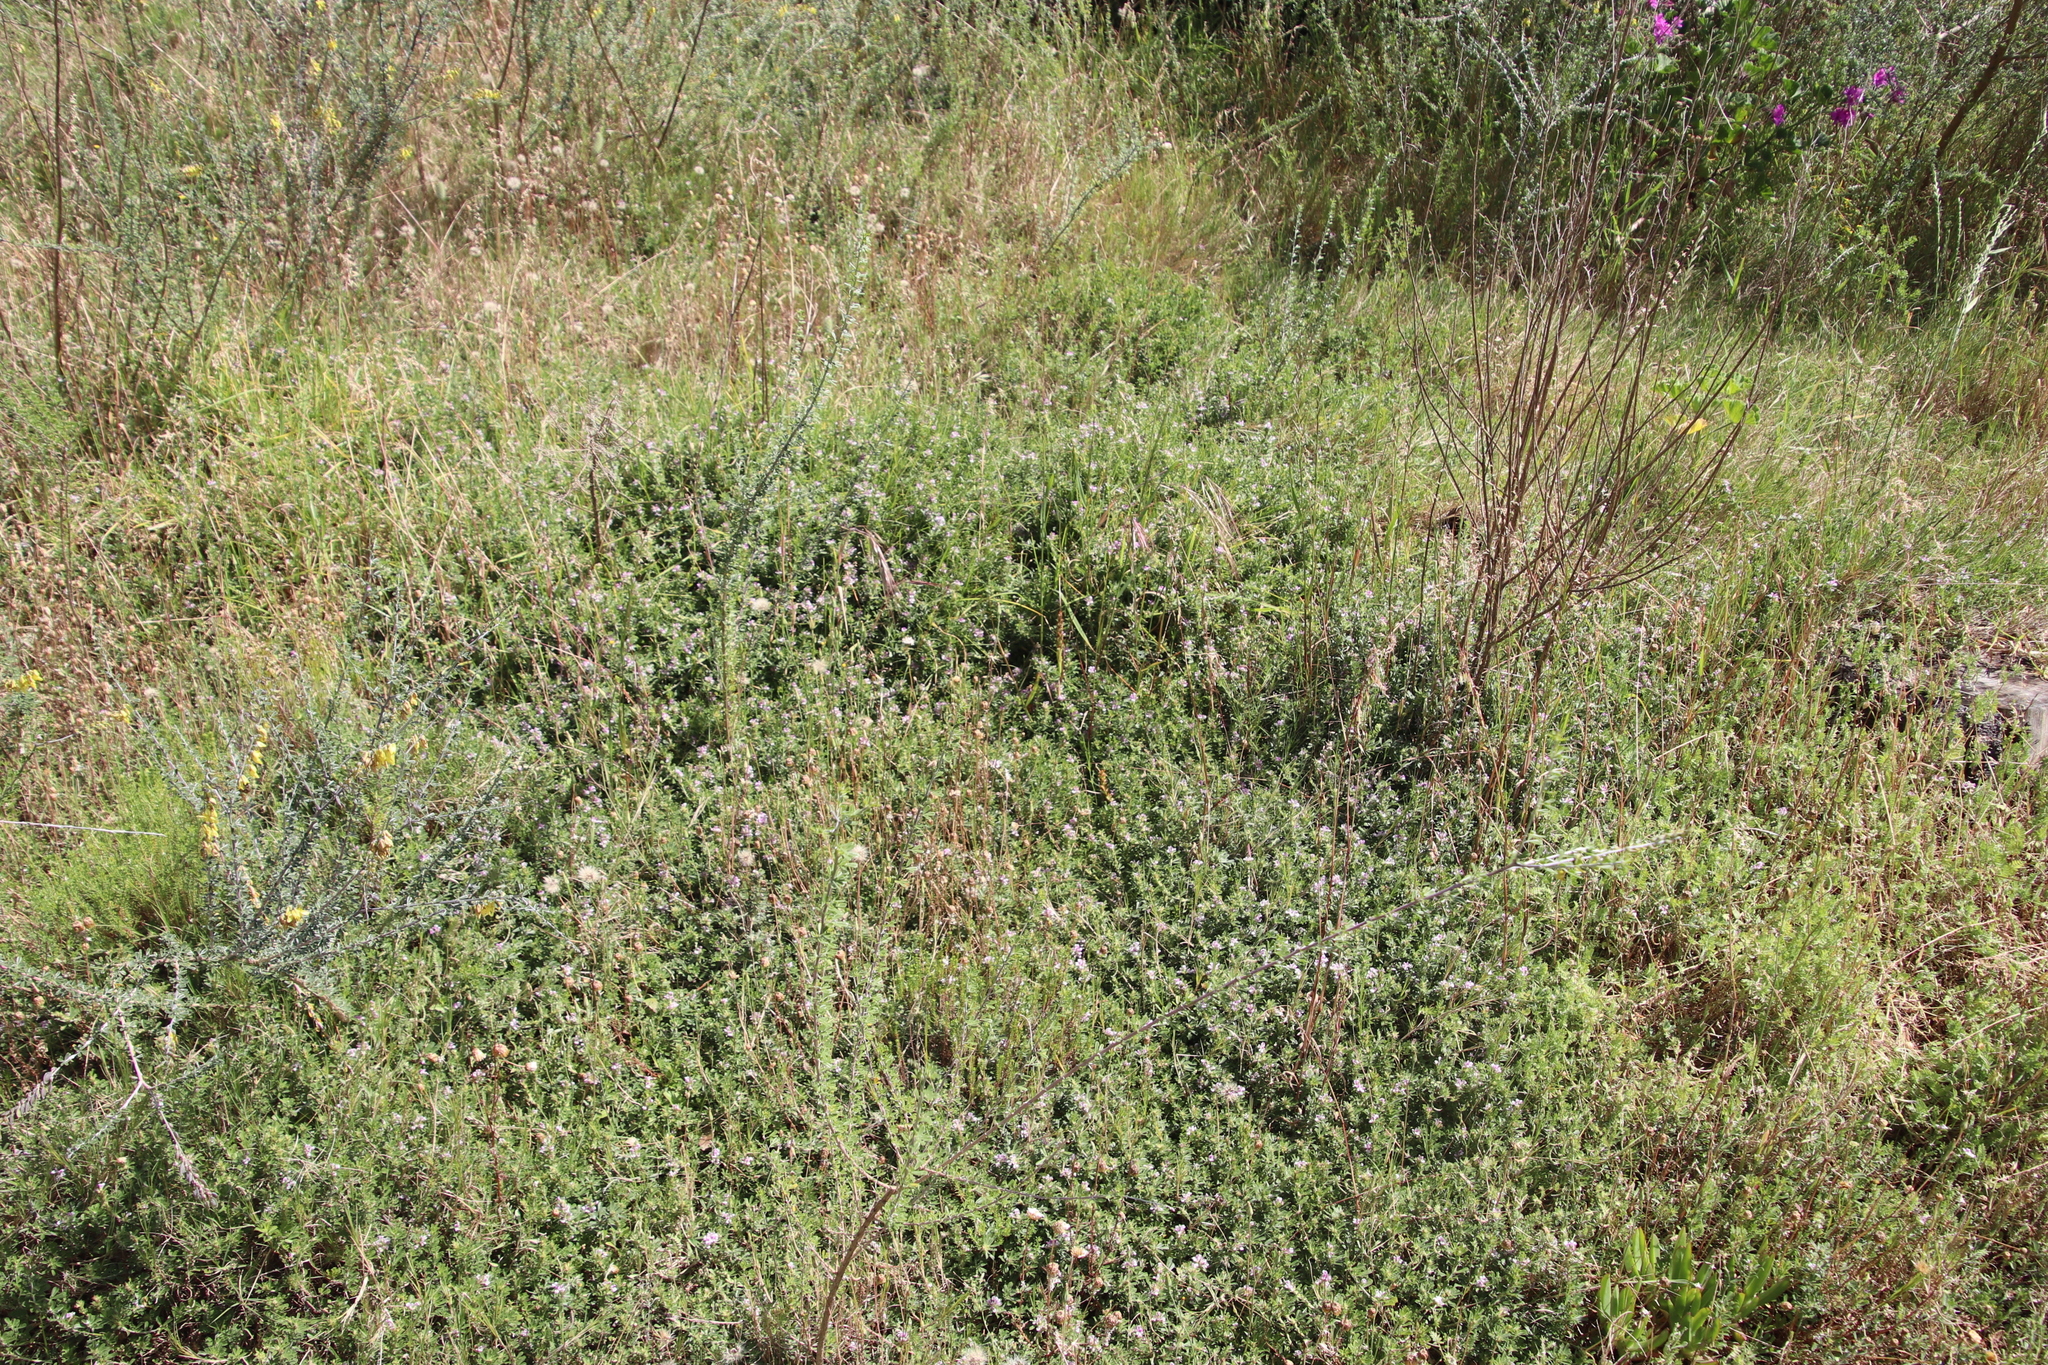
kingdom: Plantae
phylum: Tracheophyta
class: Magnoliopsida
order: Fabales
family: Fabaceae
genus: Psoralea
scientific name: Psoralea
